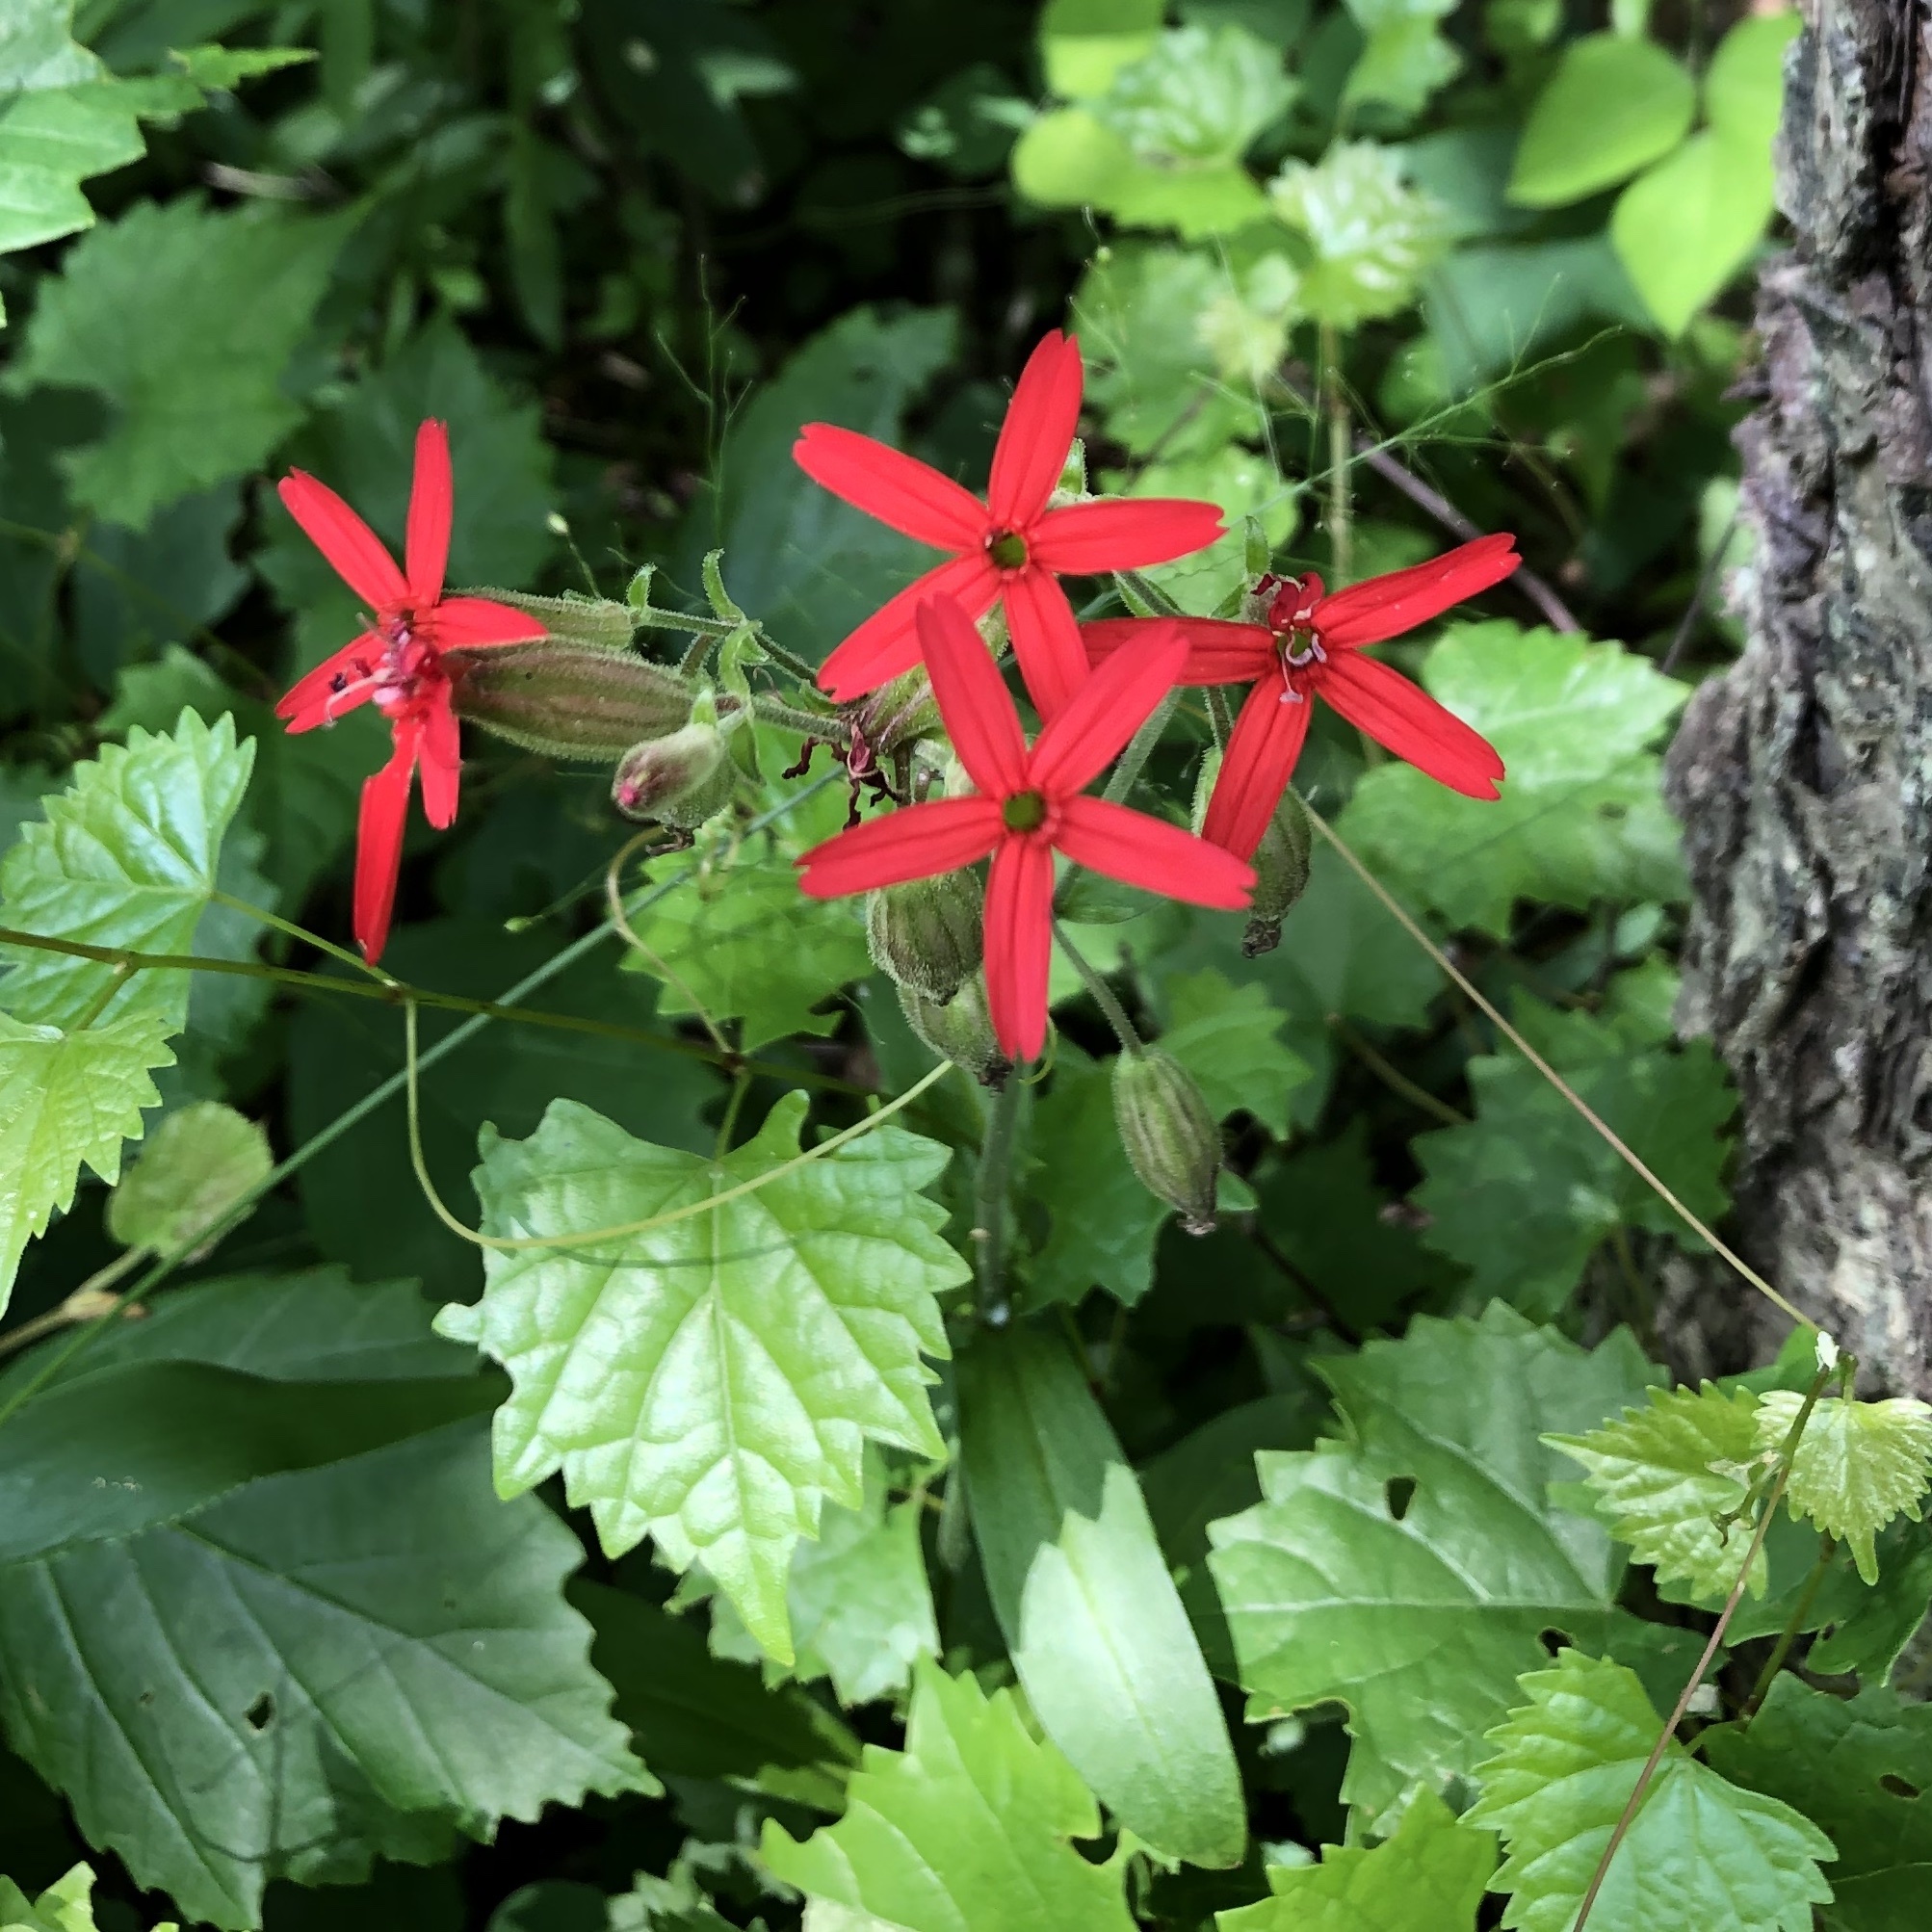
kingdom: Plantae
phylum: Tracheophyta
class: Magnoliopsida
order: Caryophyllales
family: Caryophyllaceae
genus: Silene
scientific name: Silene virginica
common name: Fire-pink
